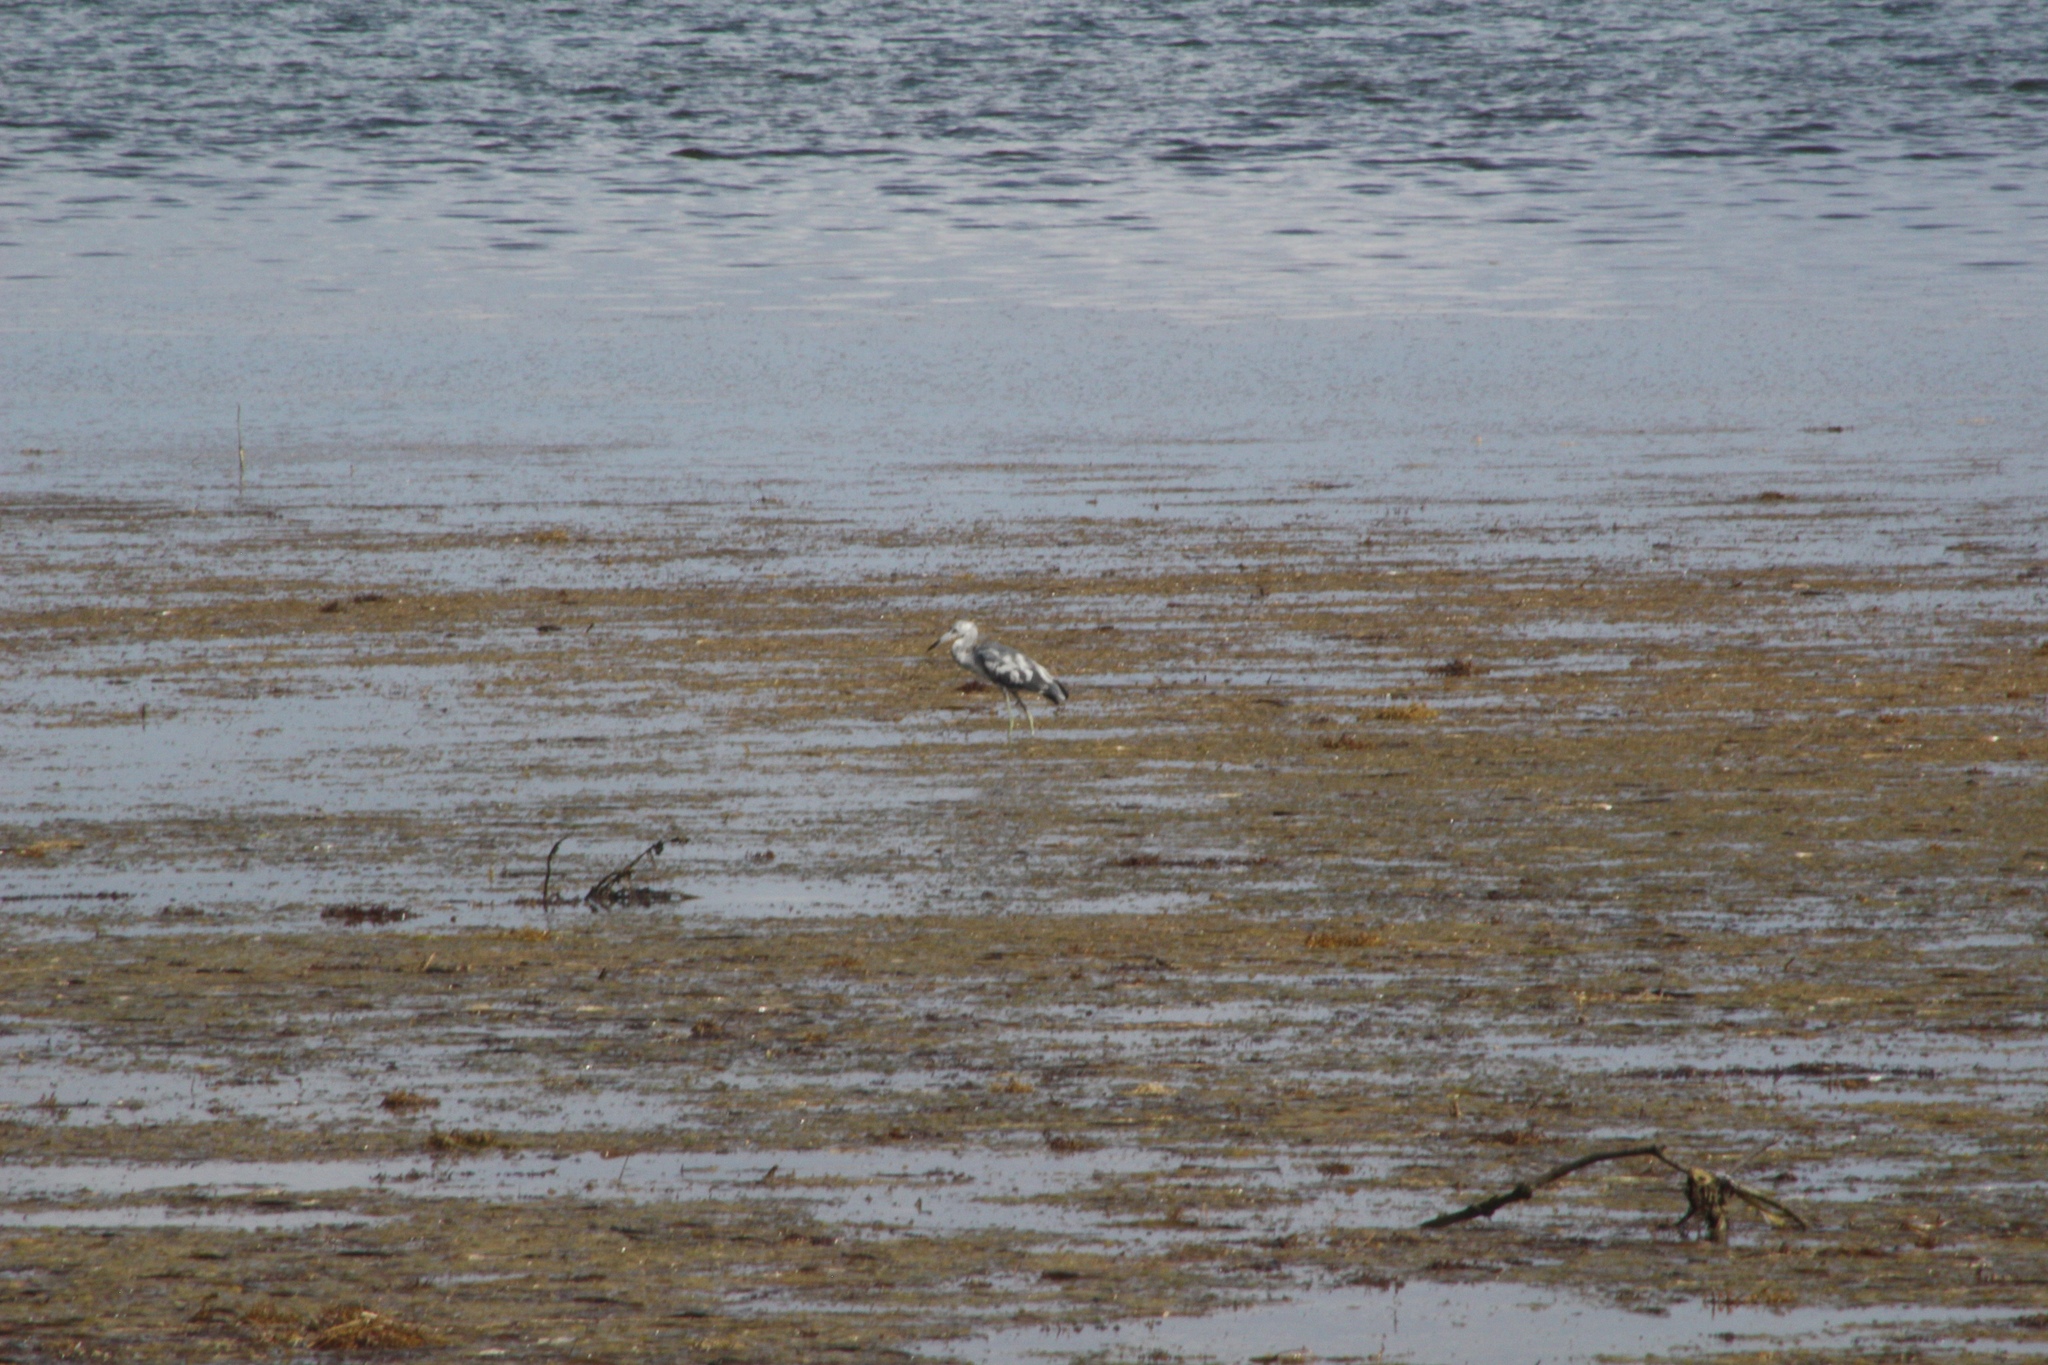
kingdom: Animalia
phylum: Chordata
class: Aves
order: Pelecaniformes
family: Ardeidae
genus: Egretta
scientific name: Egretta caerulea
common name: Little blue heron
